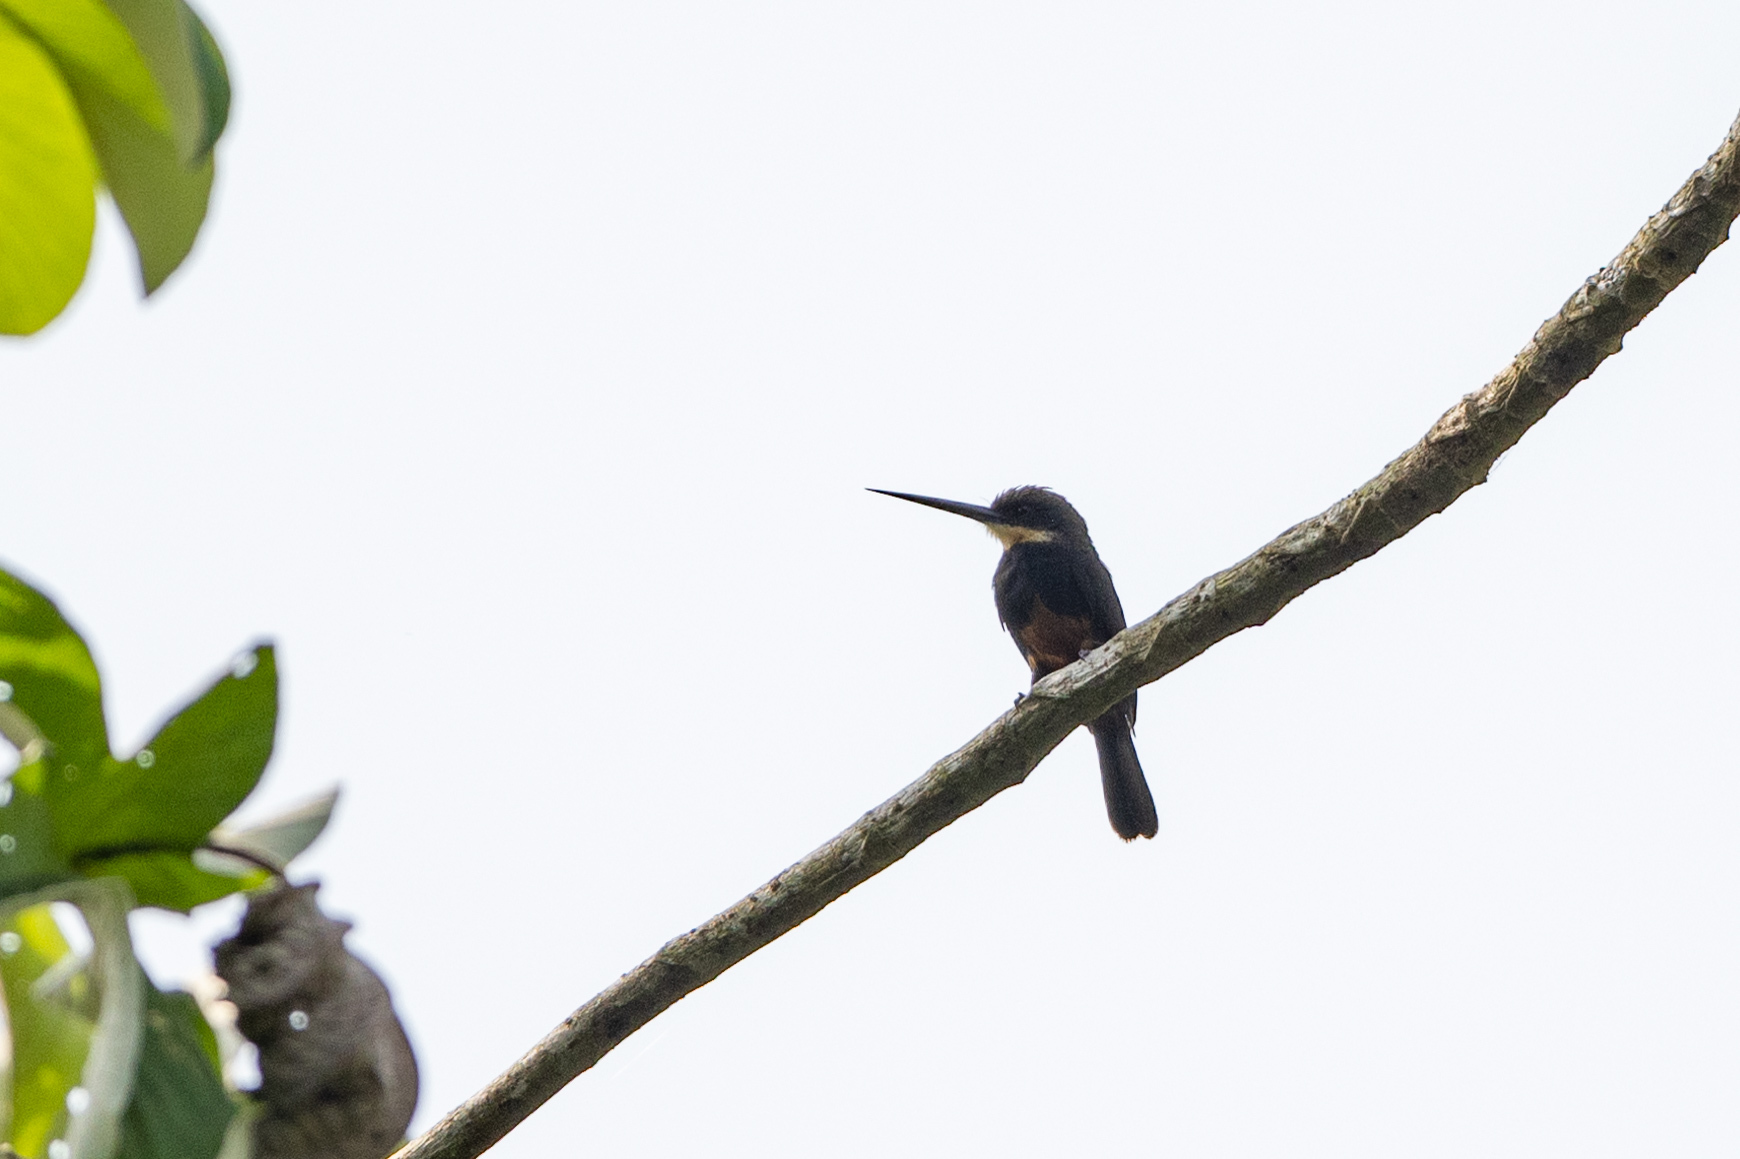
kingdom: Animalia
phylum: Chordata
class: Aves
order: Piciformes
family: Galbulidae
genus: Brachygalba
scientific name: Brachygalba salmoni
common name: Dusky-backed jacamar
